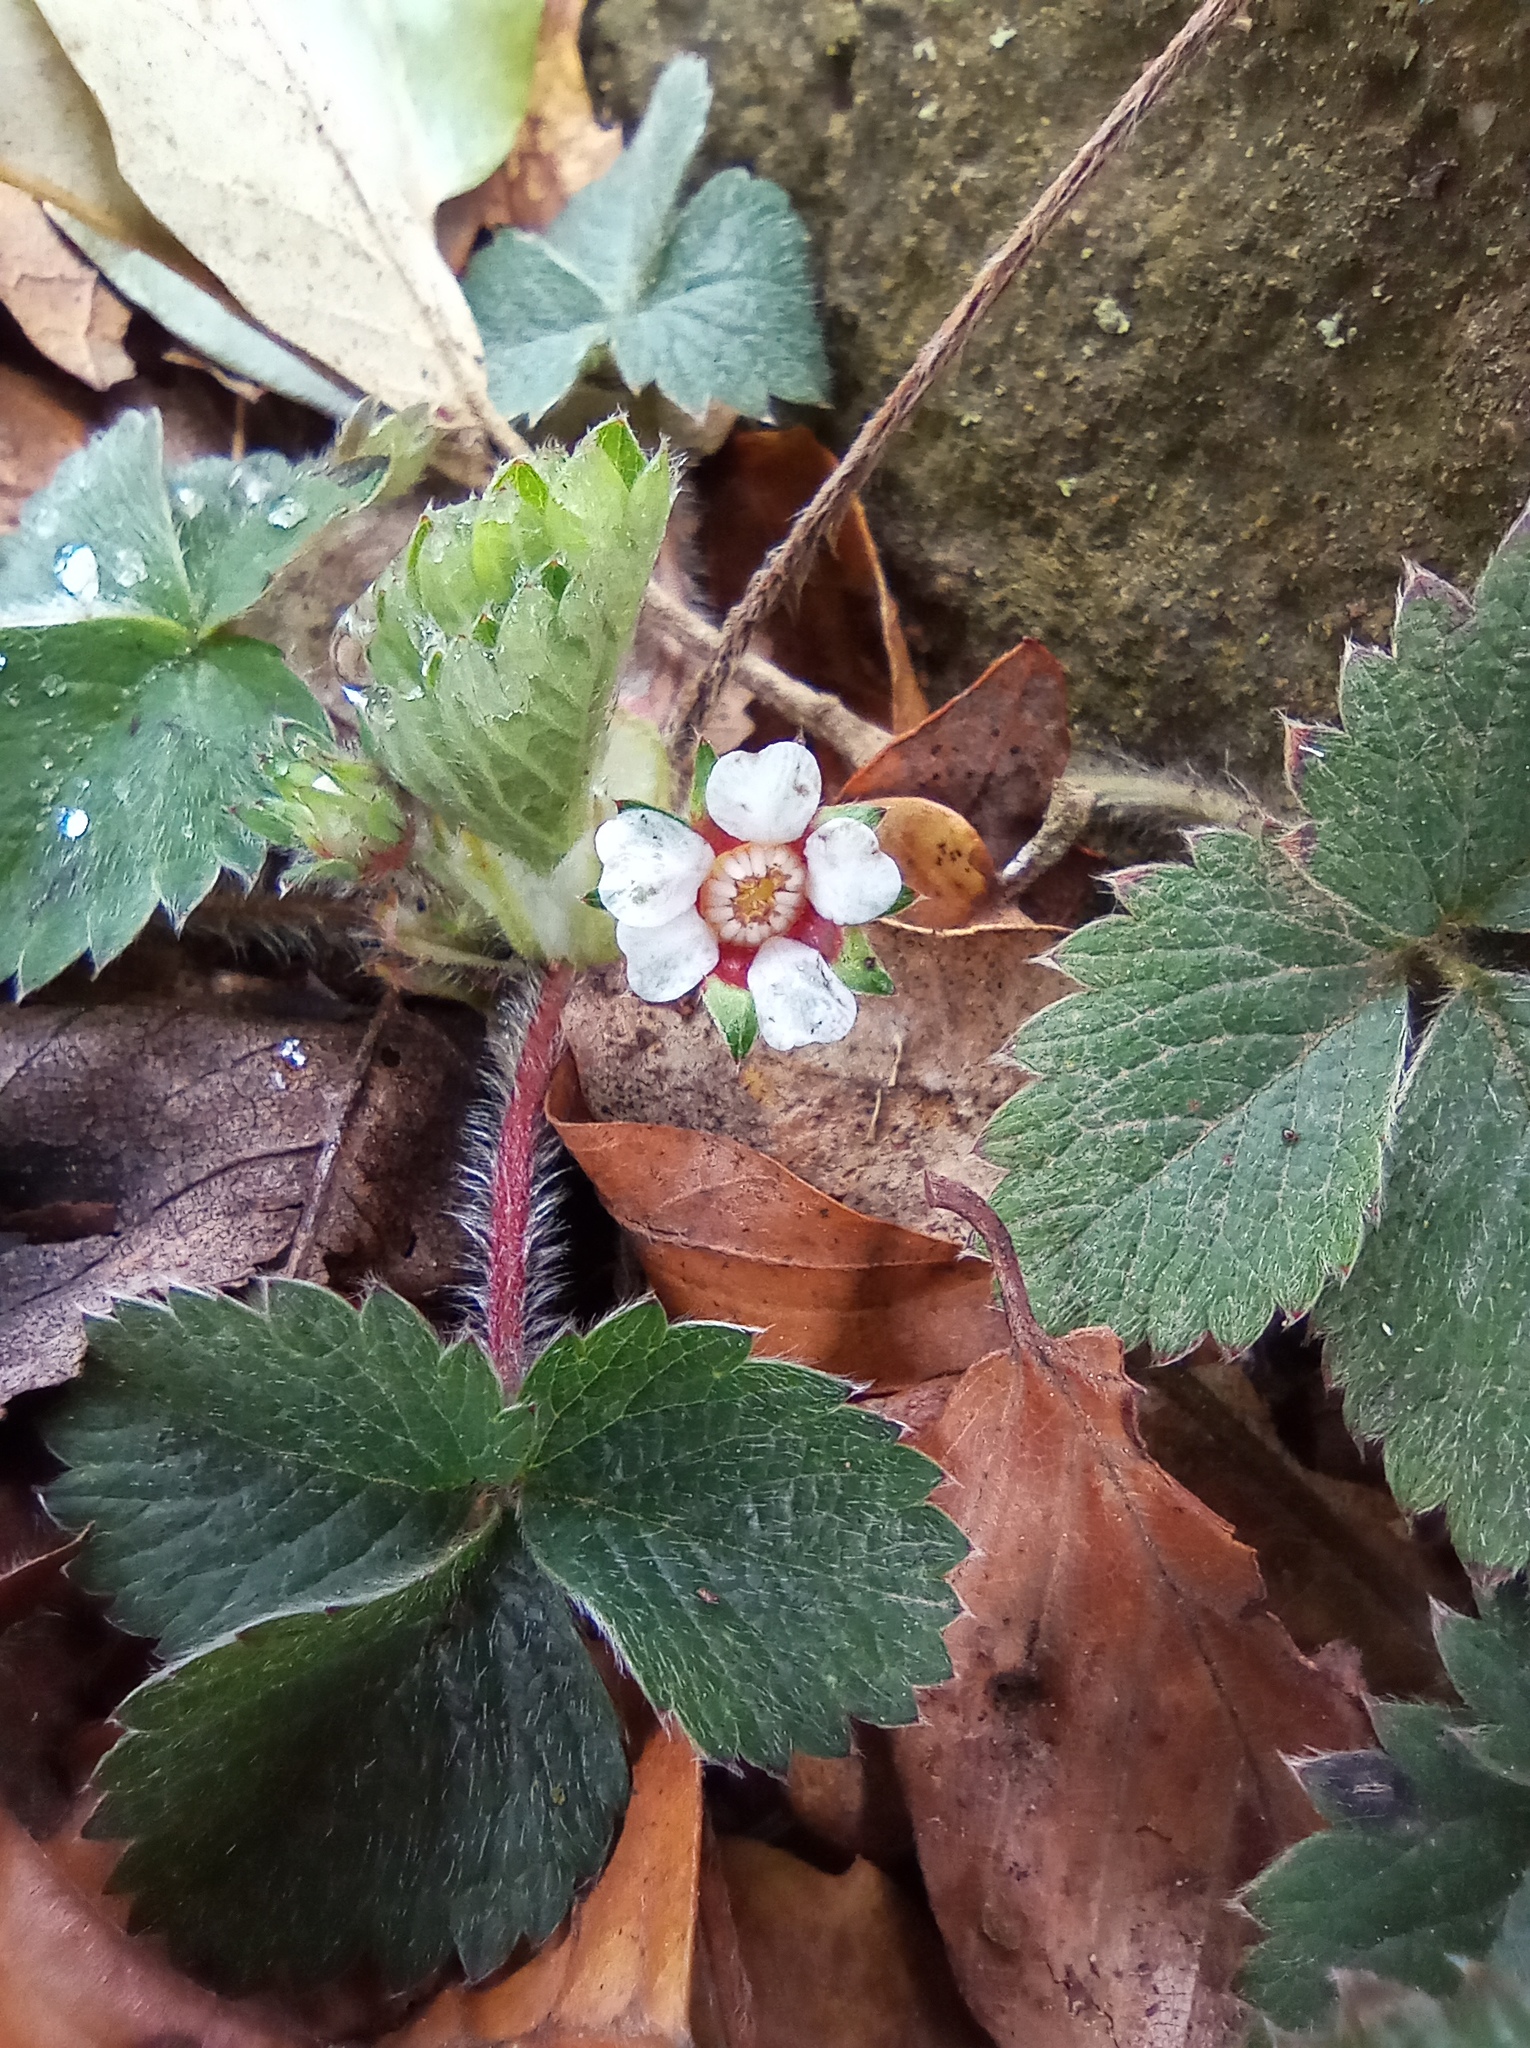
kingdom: Plantae
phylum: Tracheophyta
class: Magnoliopsida
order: Rosales
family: Rosaceae
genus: Potentilla
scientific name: Potentilla micrantha
